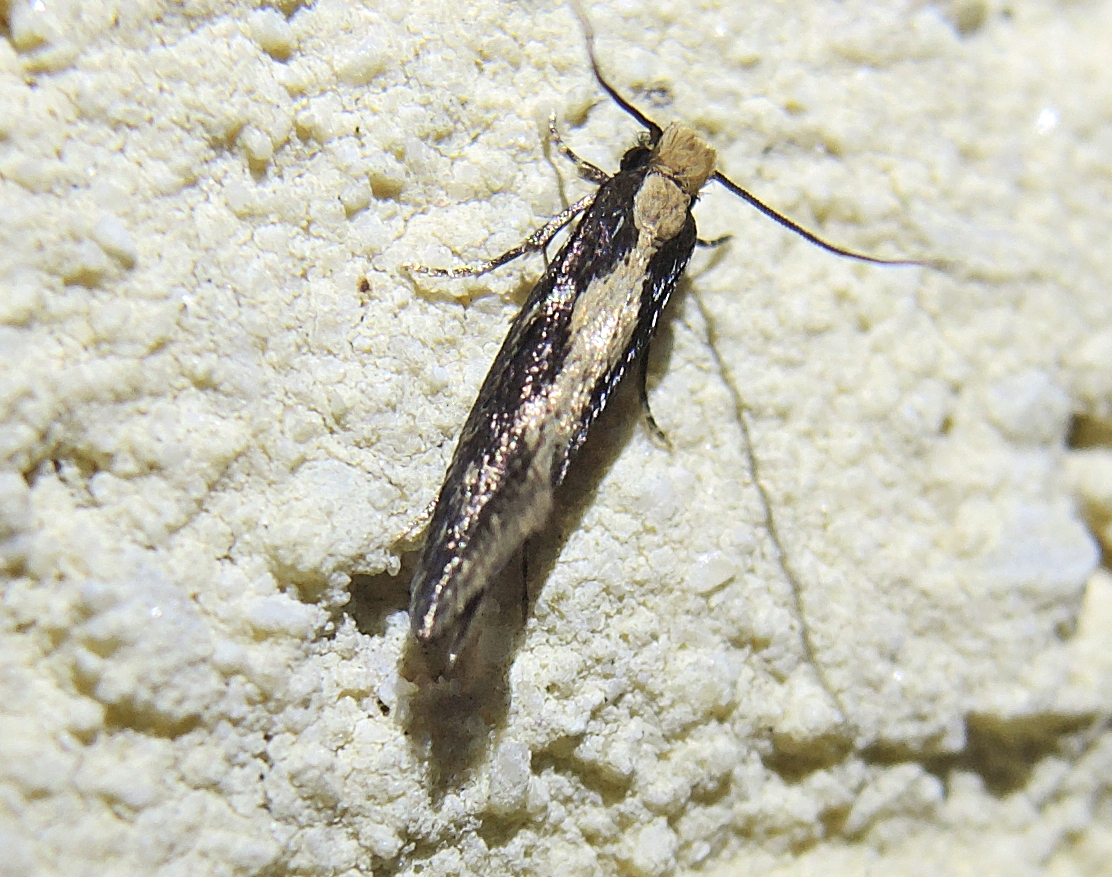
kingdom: Animalia
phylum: Arthropoda
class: Insecta
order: Lepidoptera
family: Plutellidae
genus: Plutella
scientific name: Plutella xylostella
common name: Diamond-back moth
